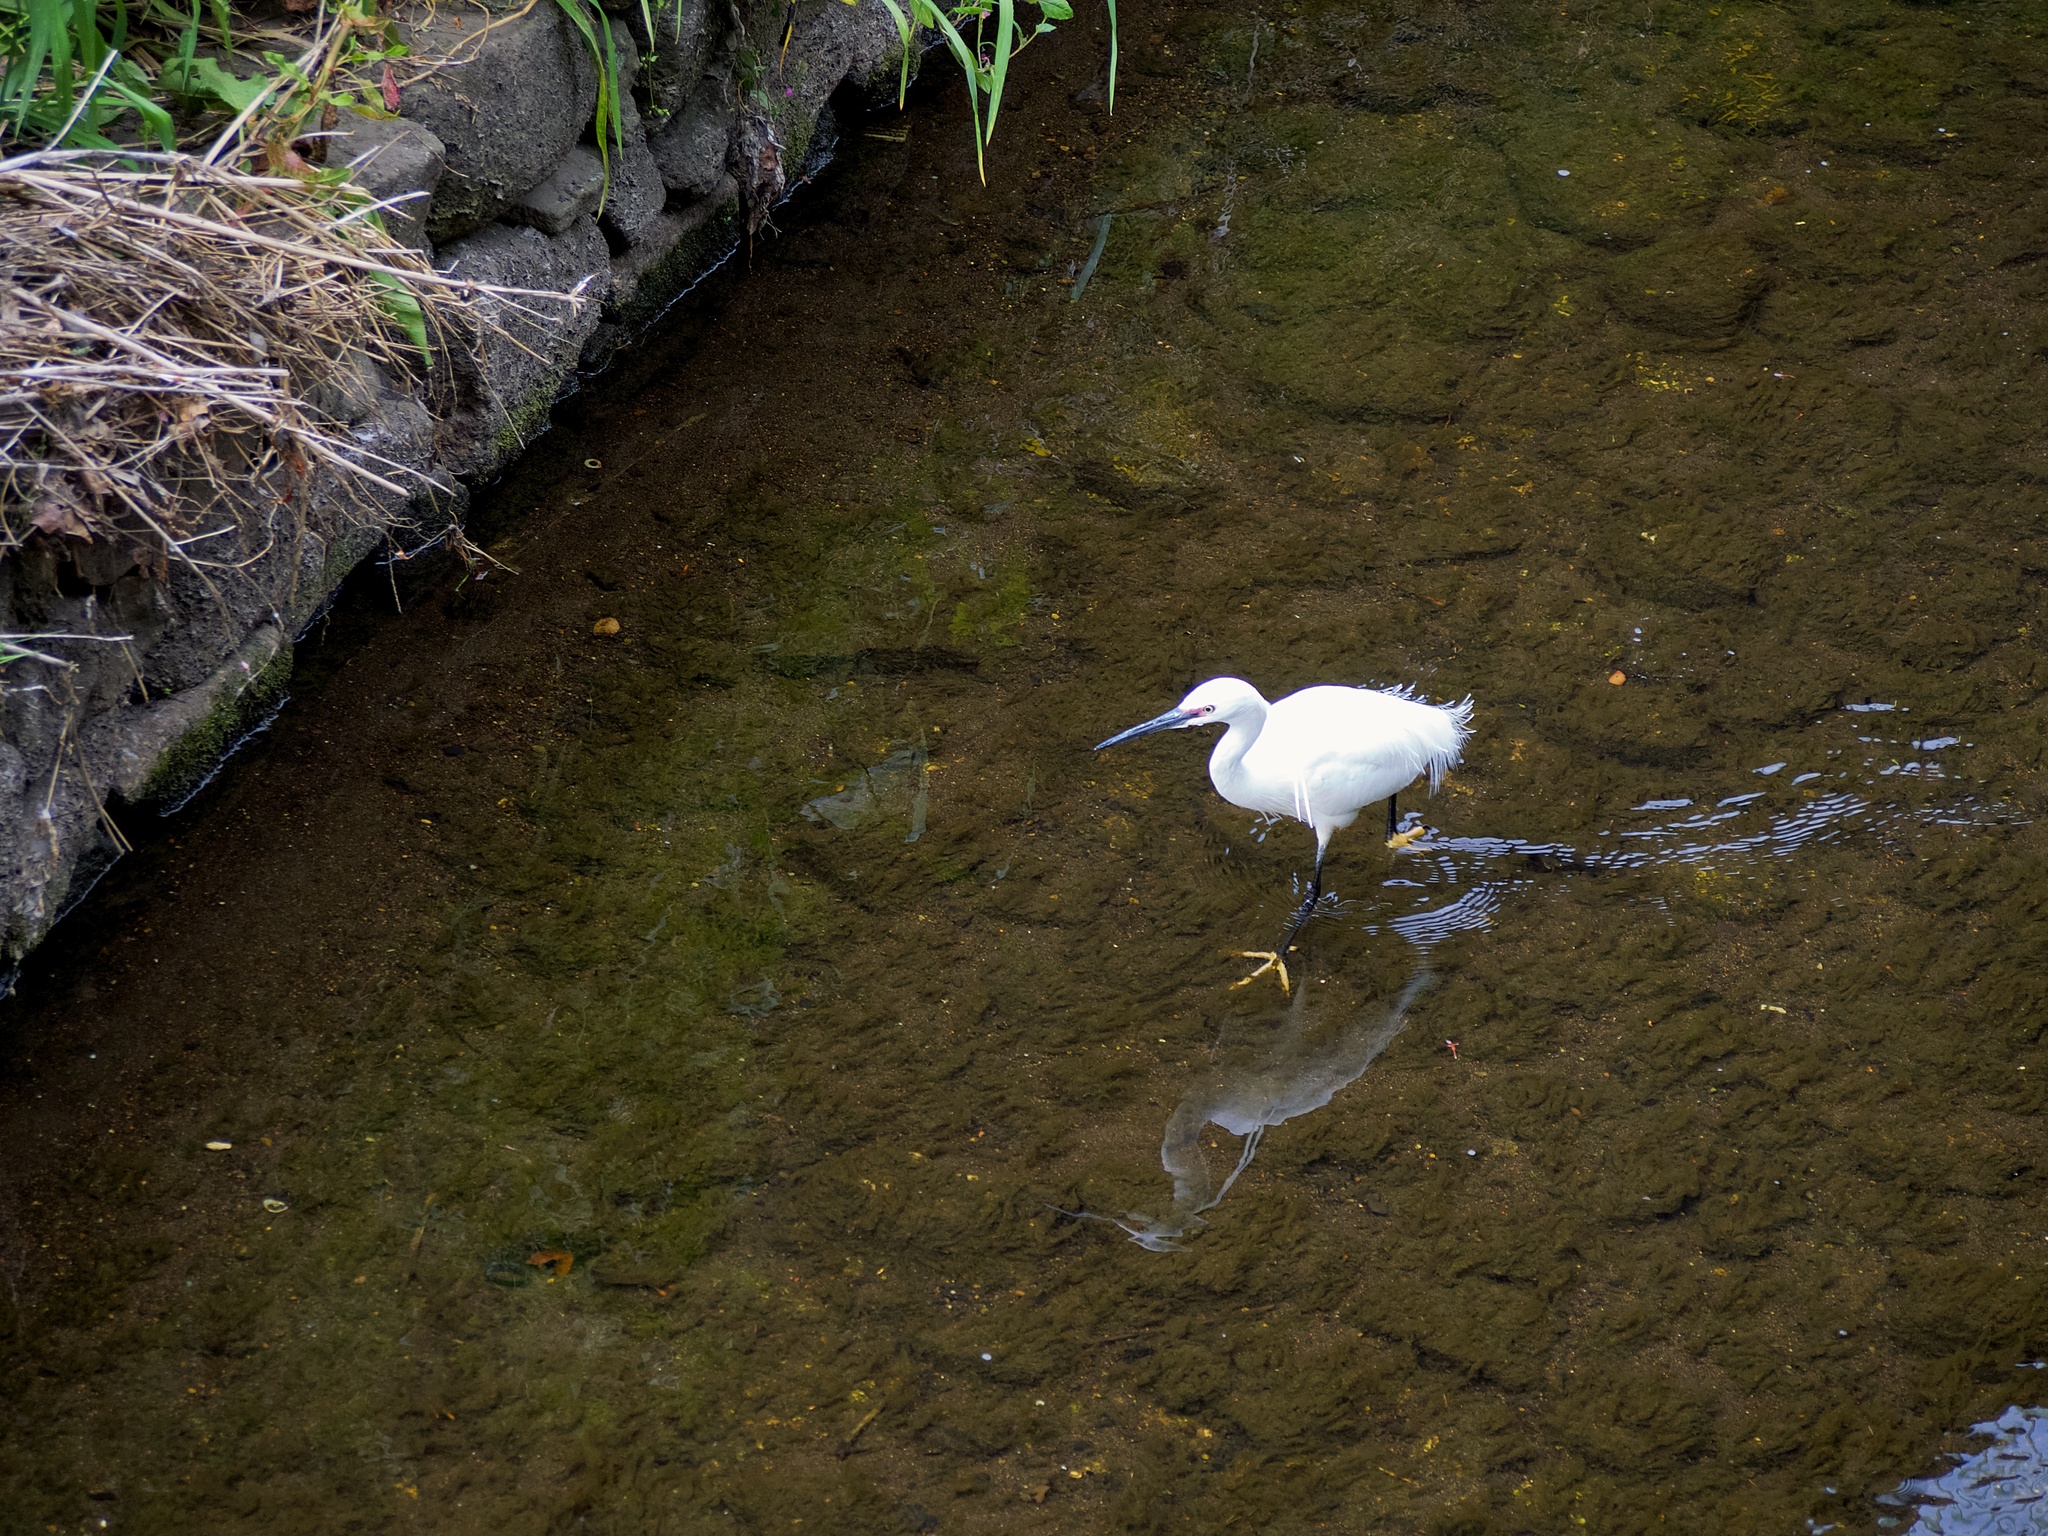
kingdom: Animalia
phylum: Chordata
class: Aves
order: Pelecaniformes
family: Ardeidae
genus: Egretta
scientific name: Egretta garzetta
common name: Little egret
